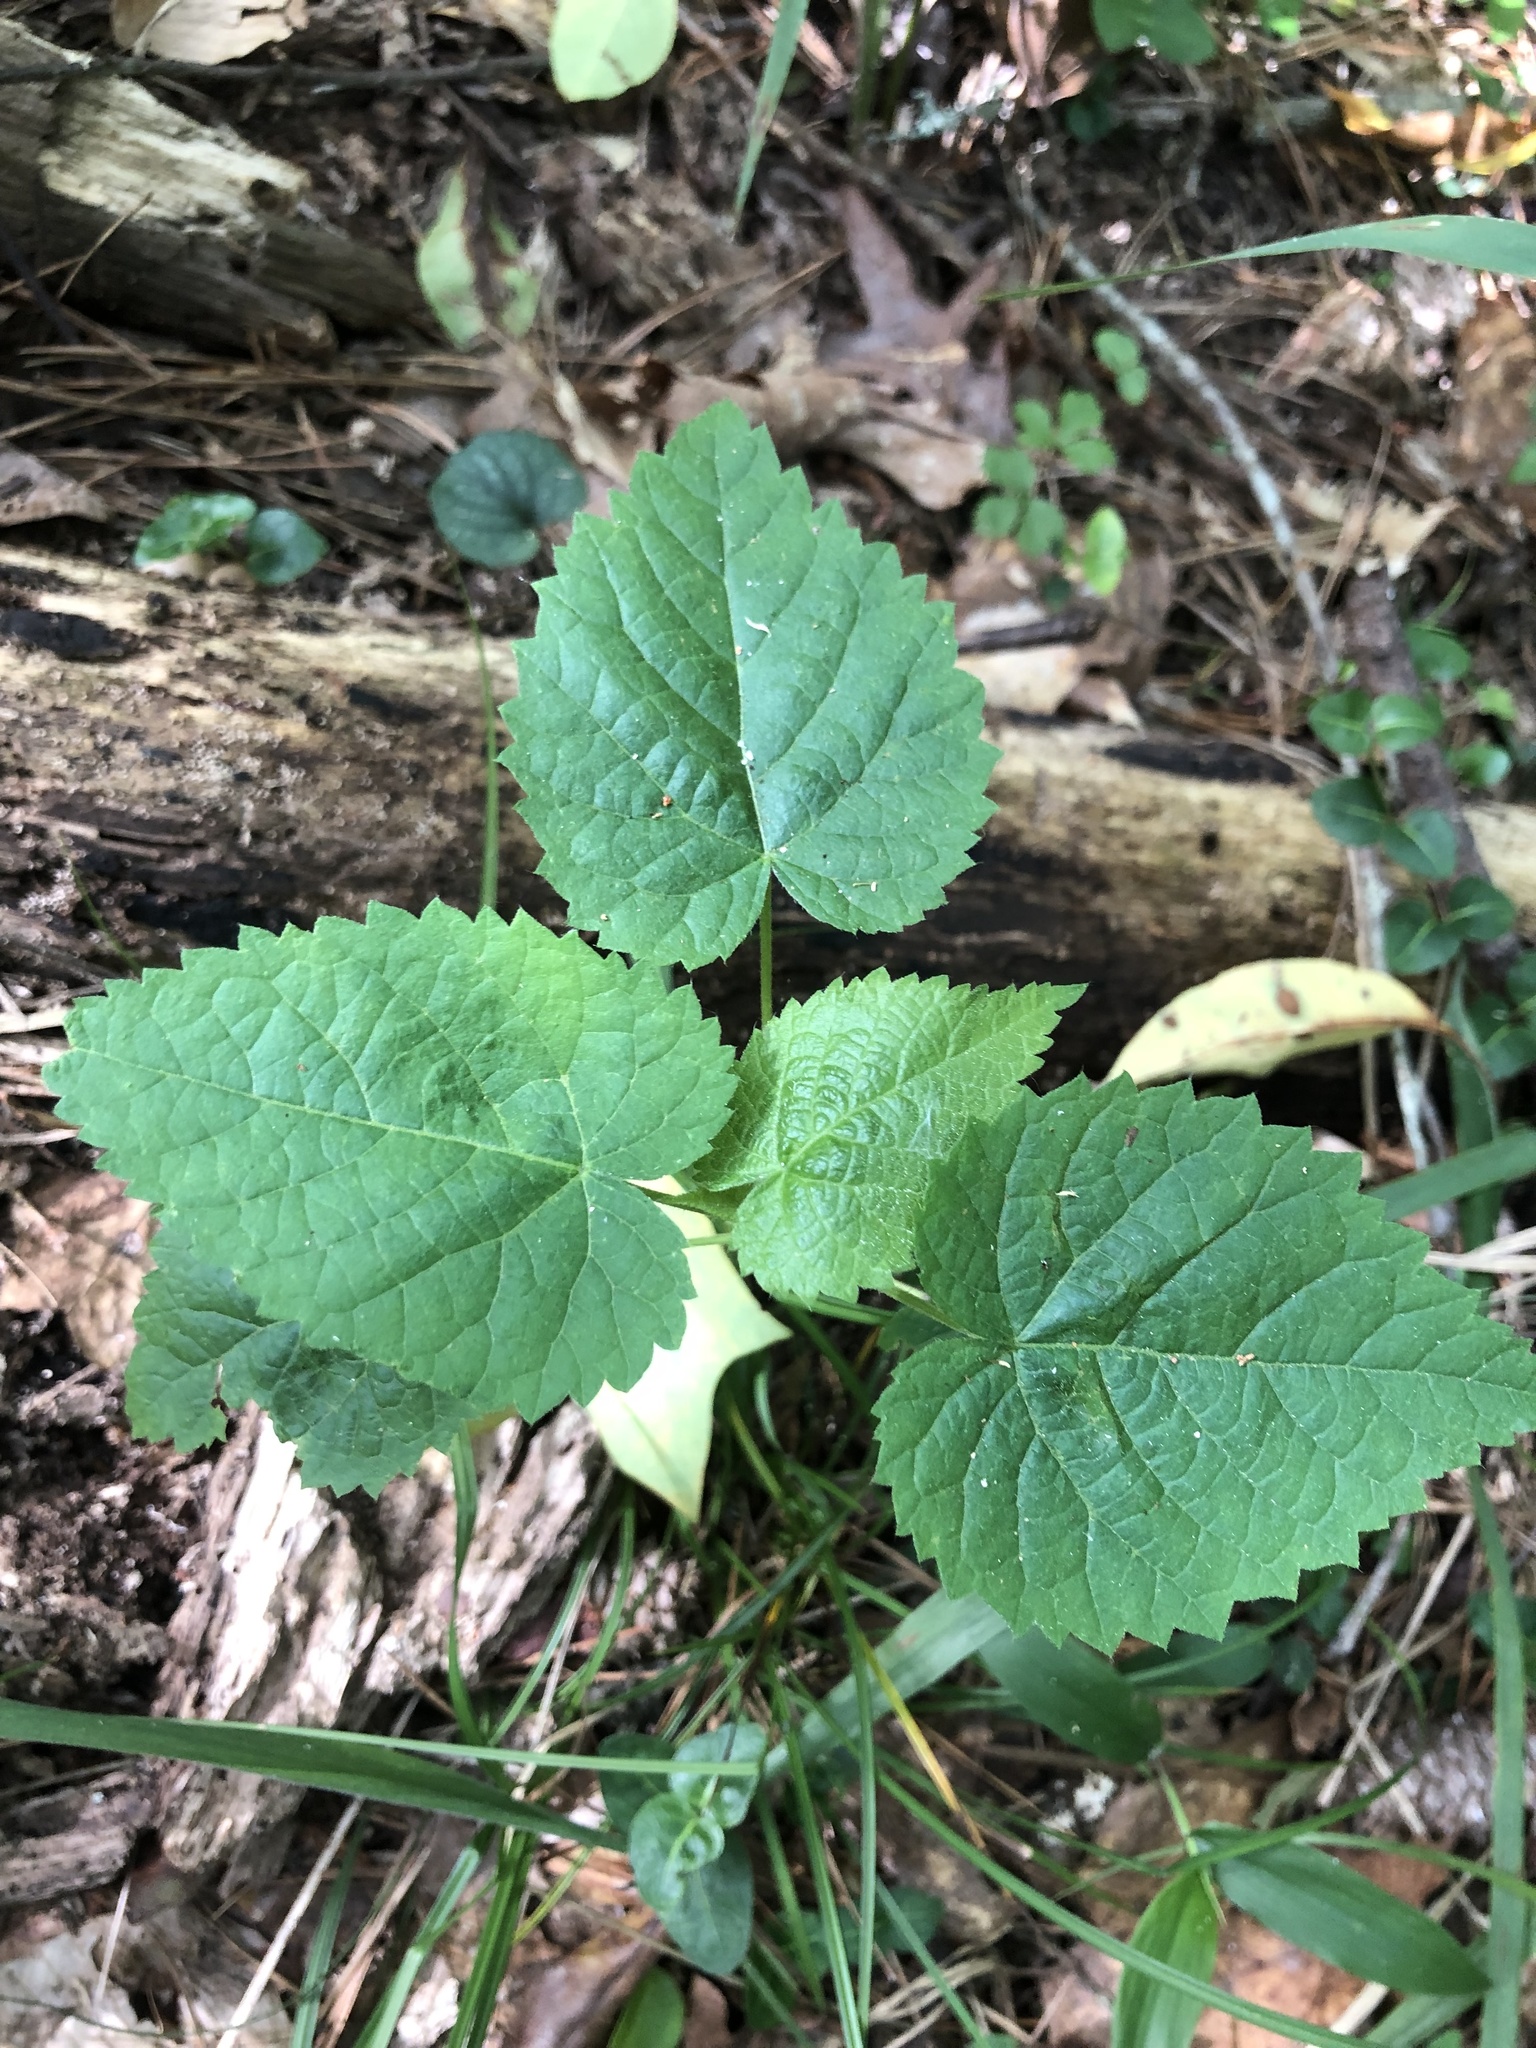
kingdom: Plantae
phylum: Tracheophyta
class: Magnoliopsida
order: Malpighiales
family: Euphorbiaceae
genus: Tragia
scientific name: Tragia cordata
